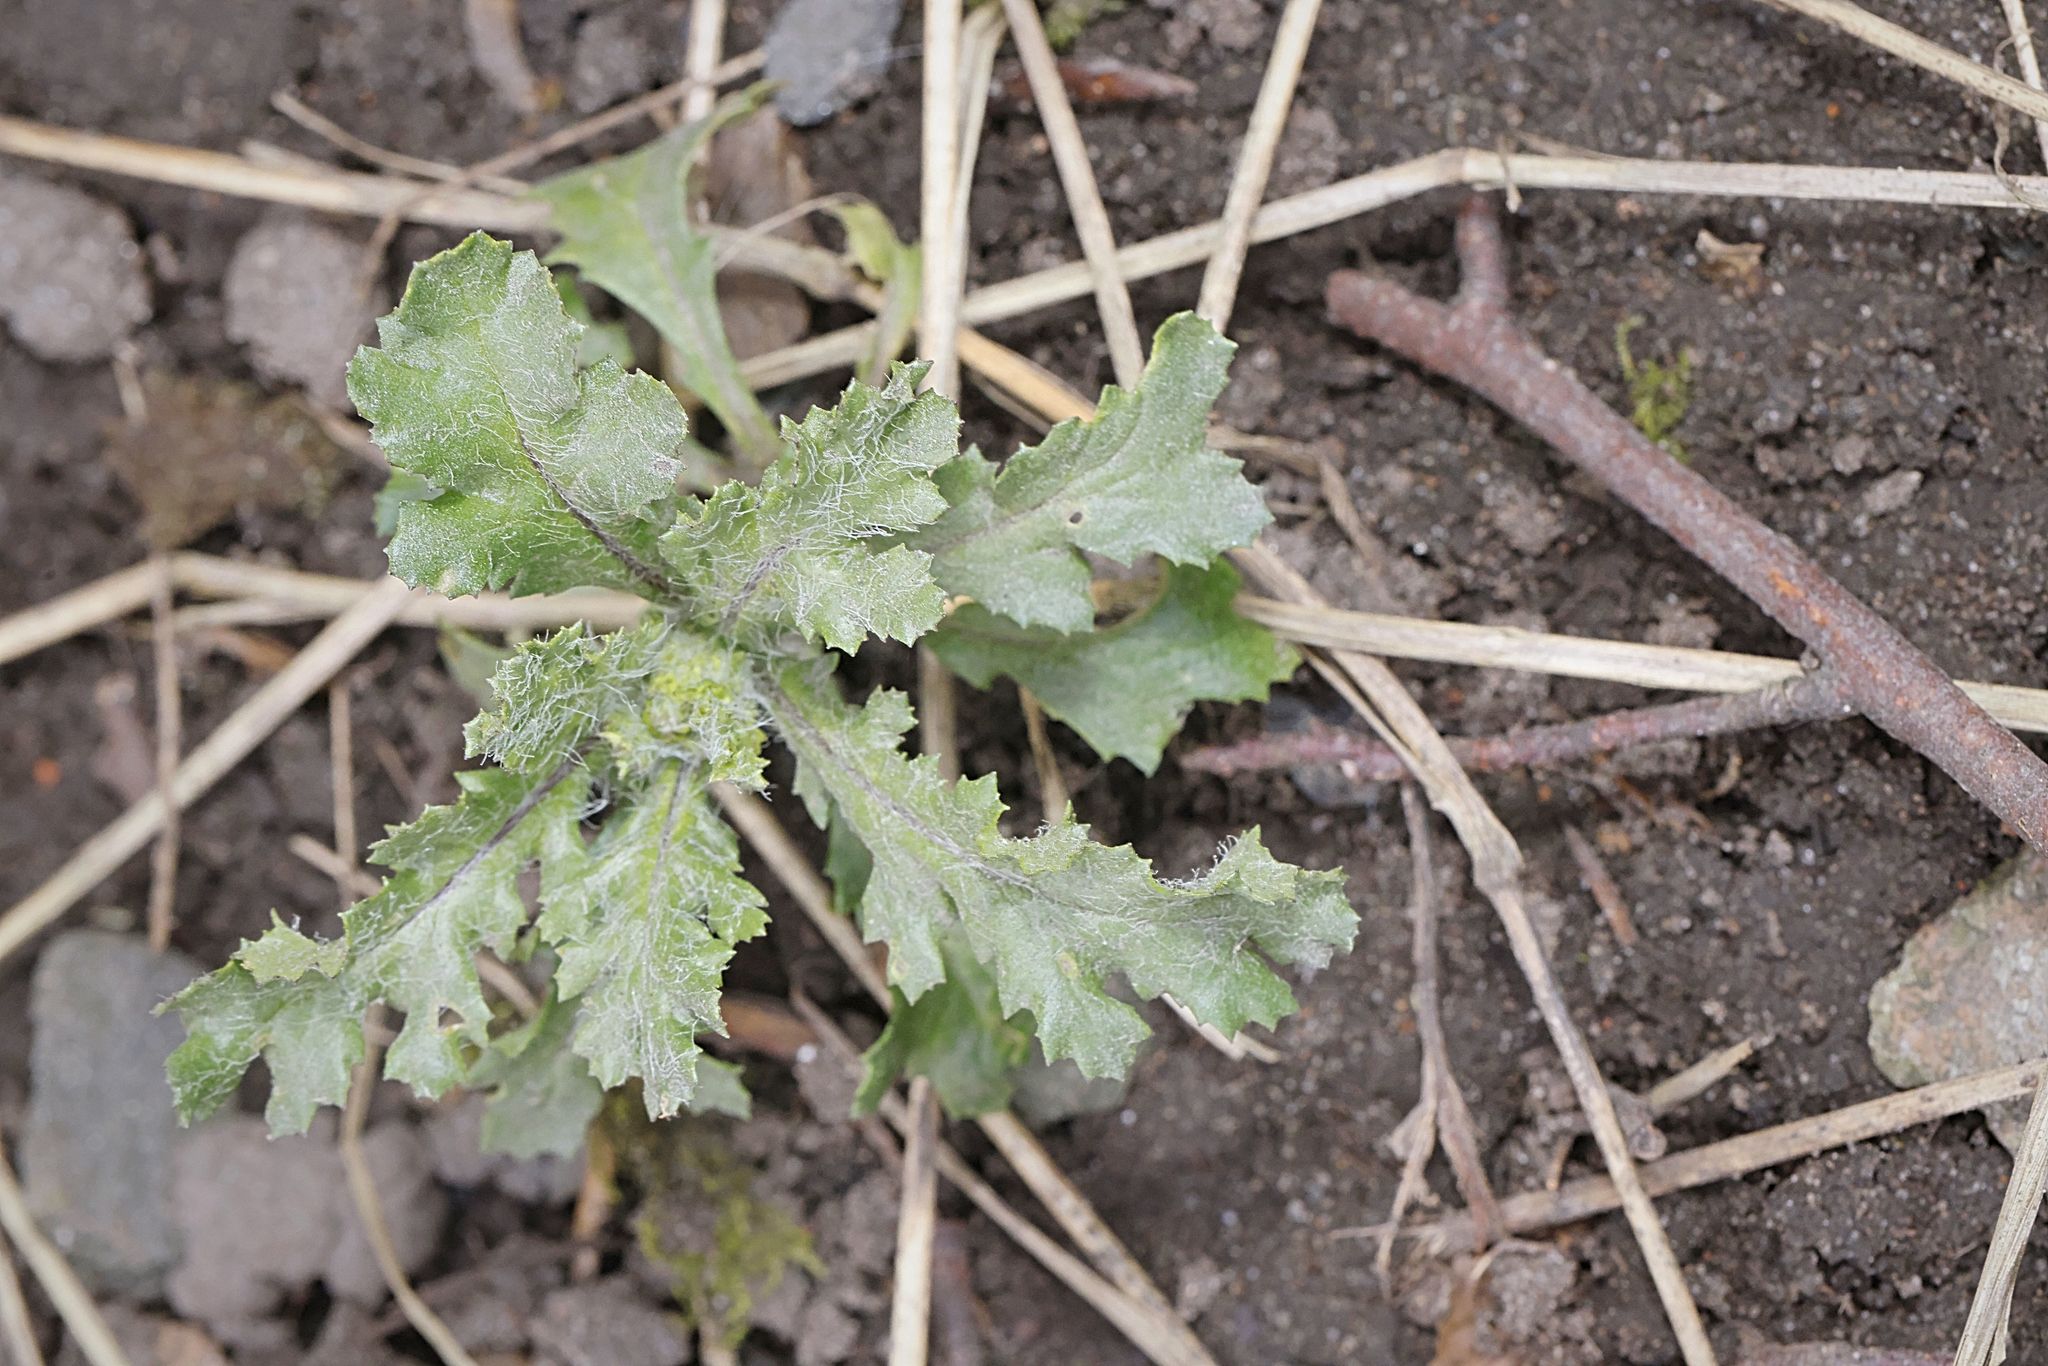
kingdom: Plantae
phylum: Tracheophyta
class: Magnoliopsida
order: Asterales
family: Asteraceae
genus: Senecio
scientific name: Senecio vulgaris
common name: Old-man-in-the-spring
